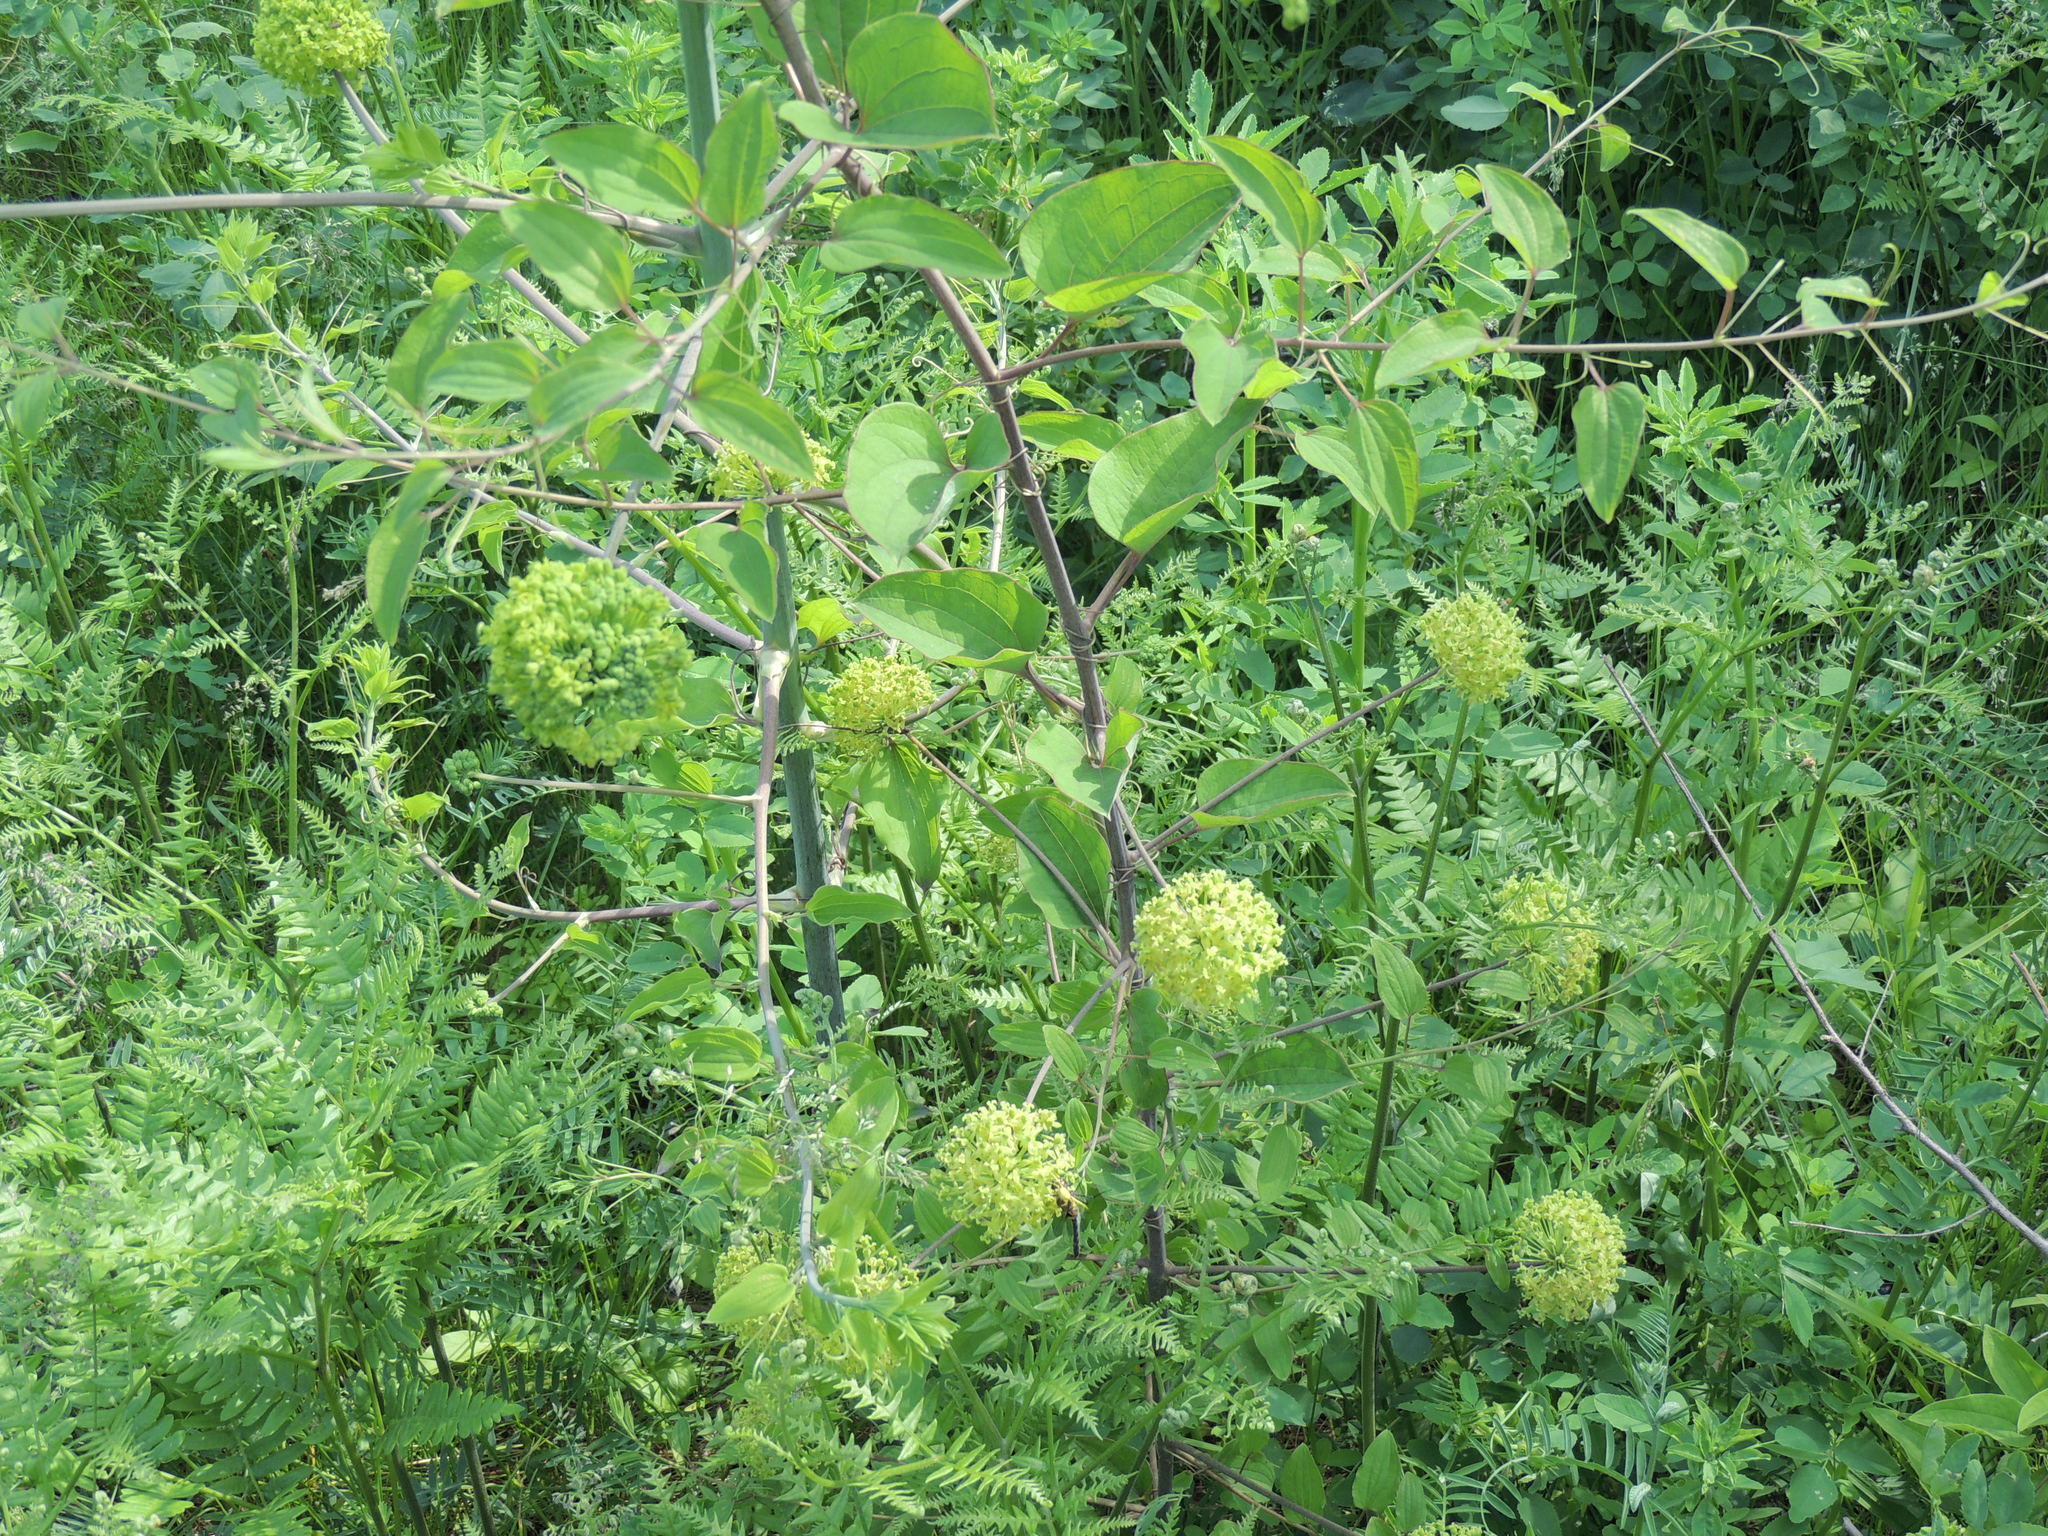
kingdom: Plantae
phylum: Tracheophyta
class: Liliopsida
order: Liliales
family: Smilacaceae
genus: Smilax
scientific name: Smilax herbacea
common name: Jacob's-ladder
